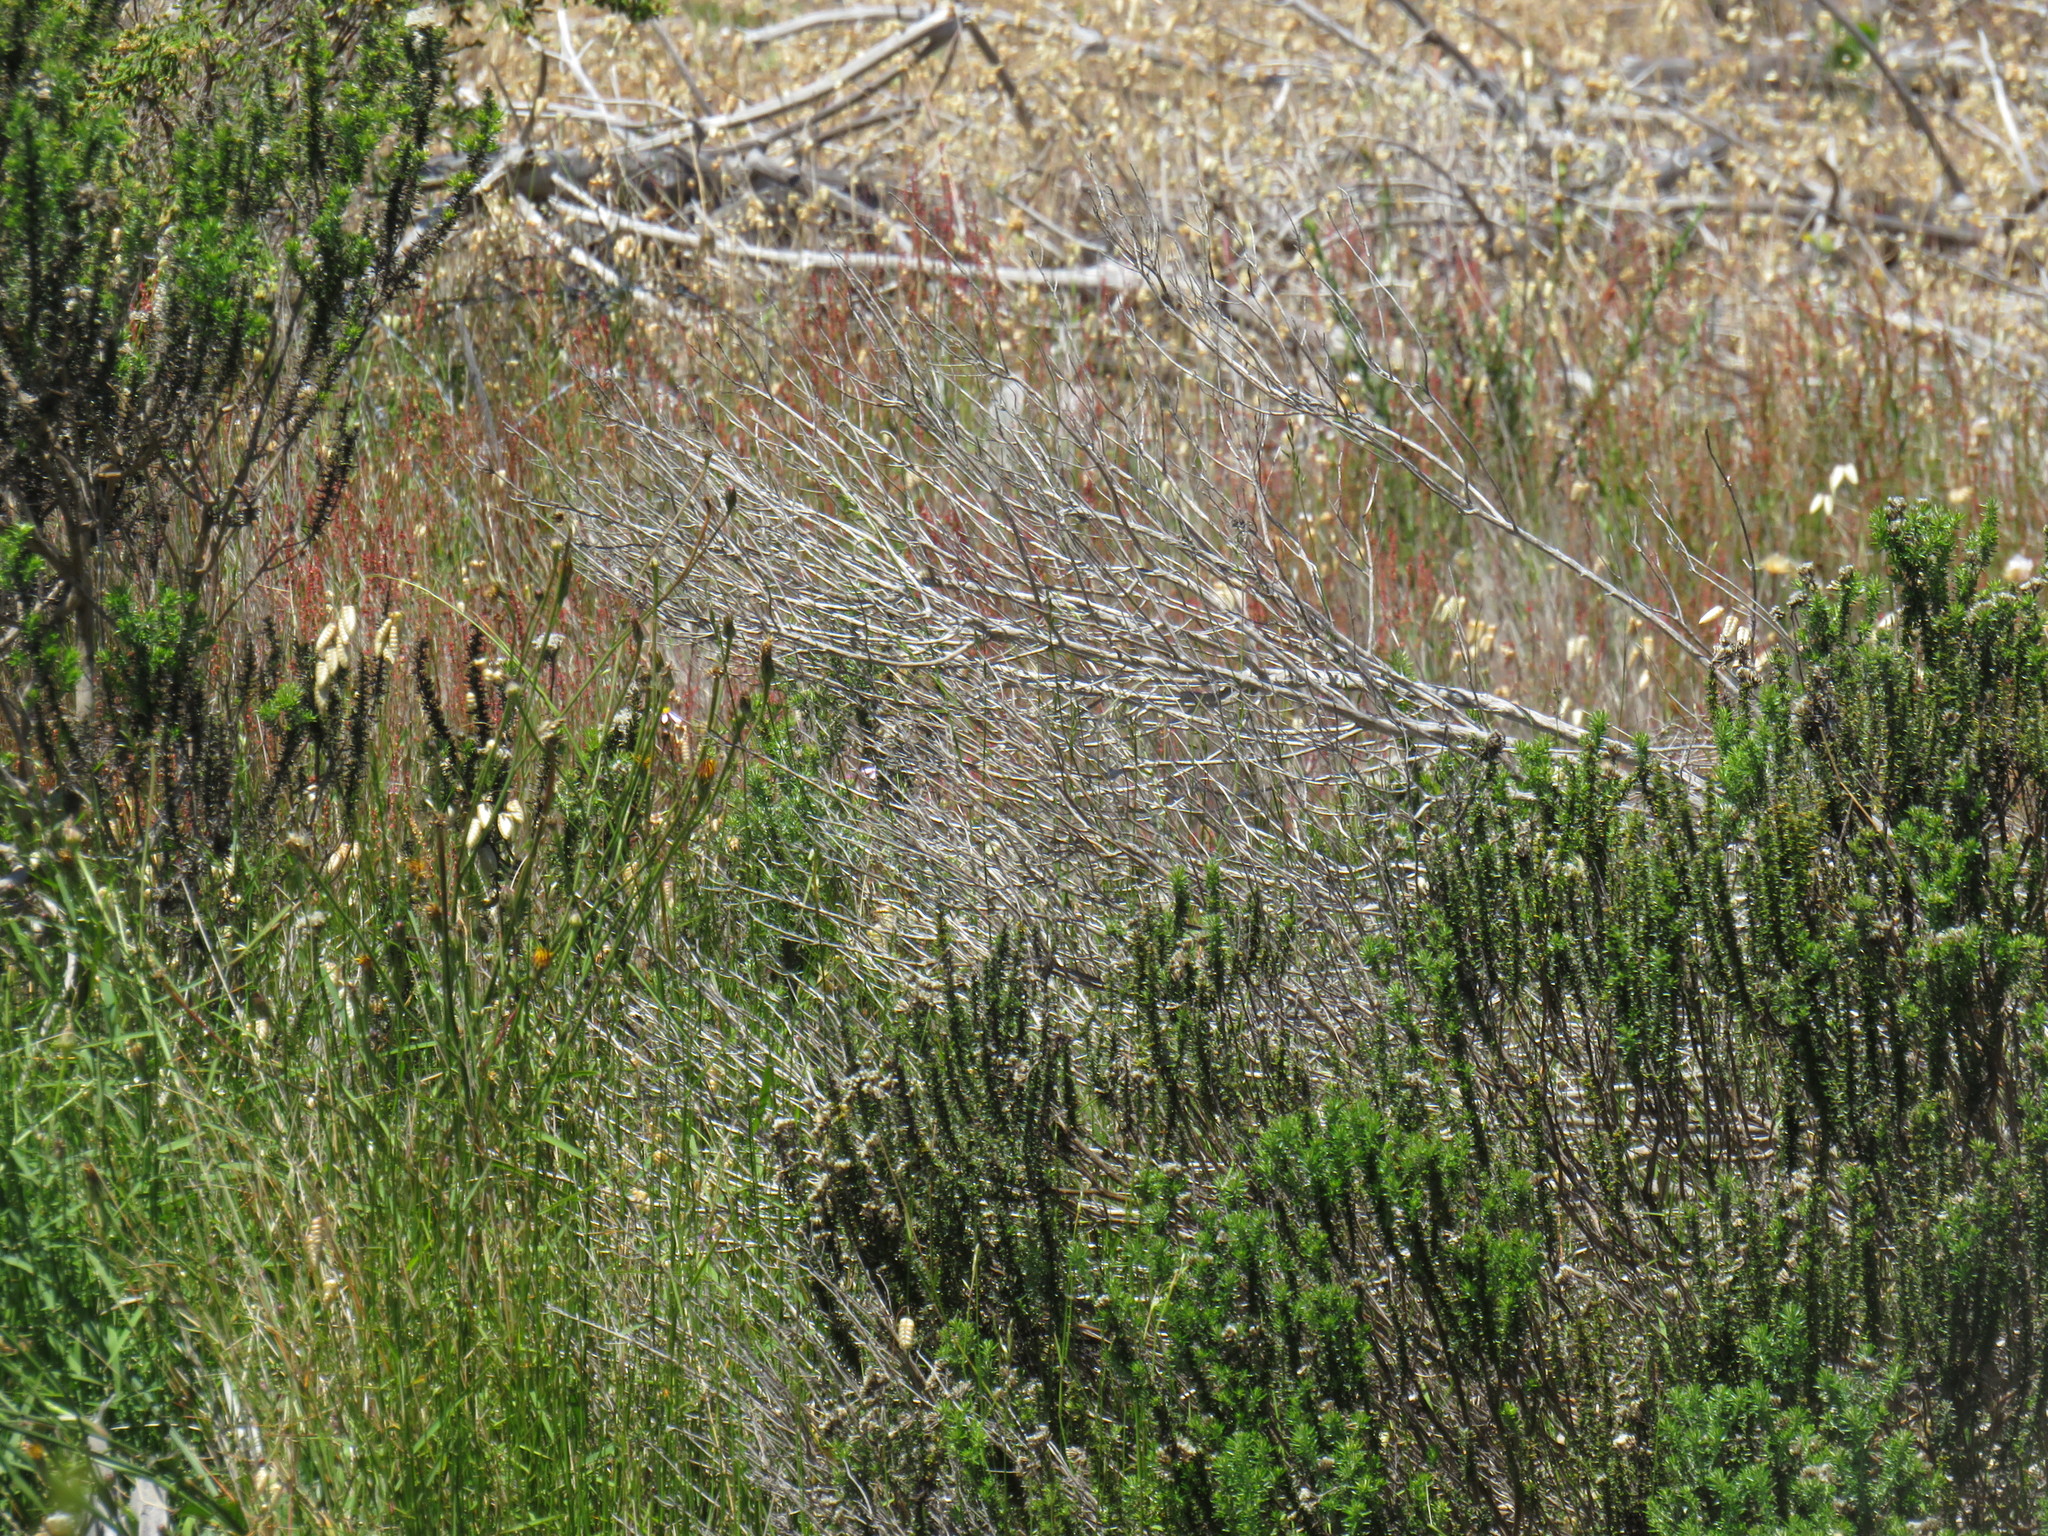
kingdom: Plantae
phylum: Tracheophyta
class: Magnoliopsida
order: Asterales
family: Asteraceae
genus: Metalasia
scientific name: Metalasia densa
